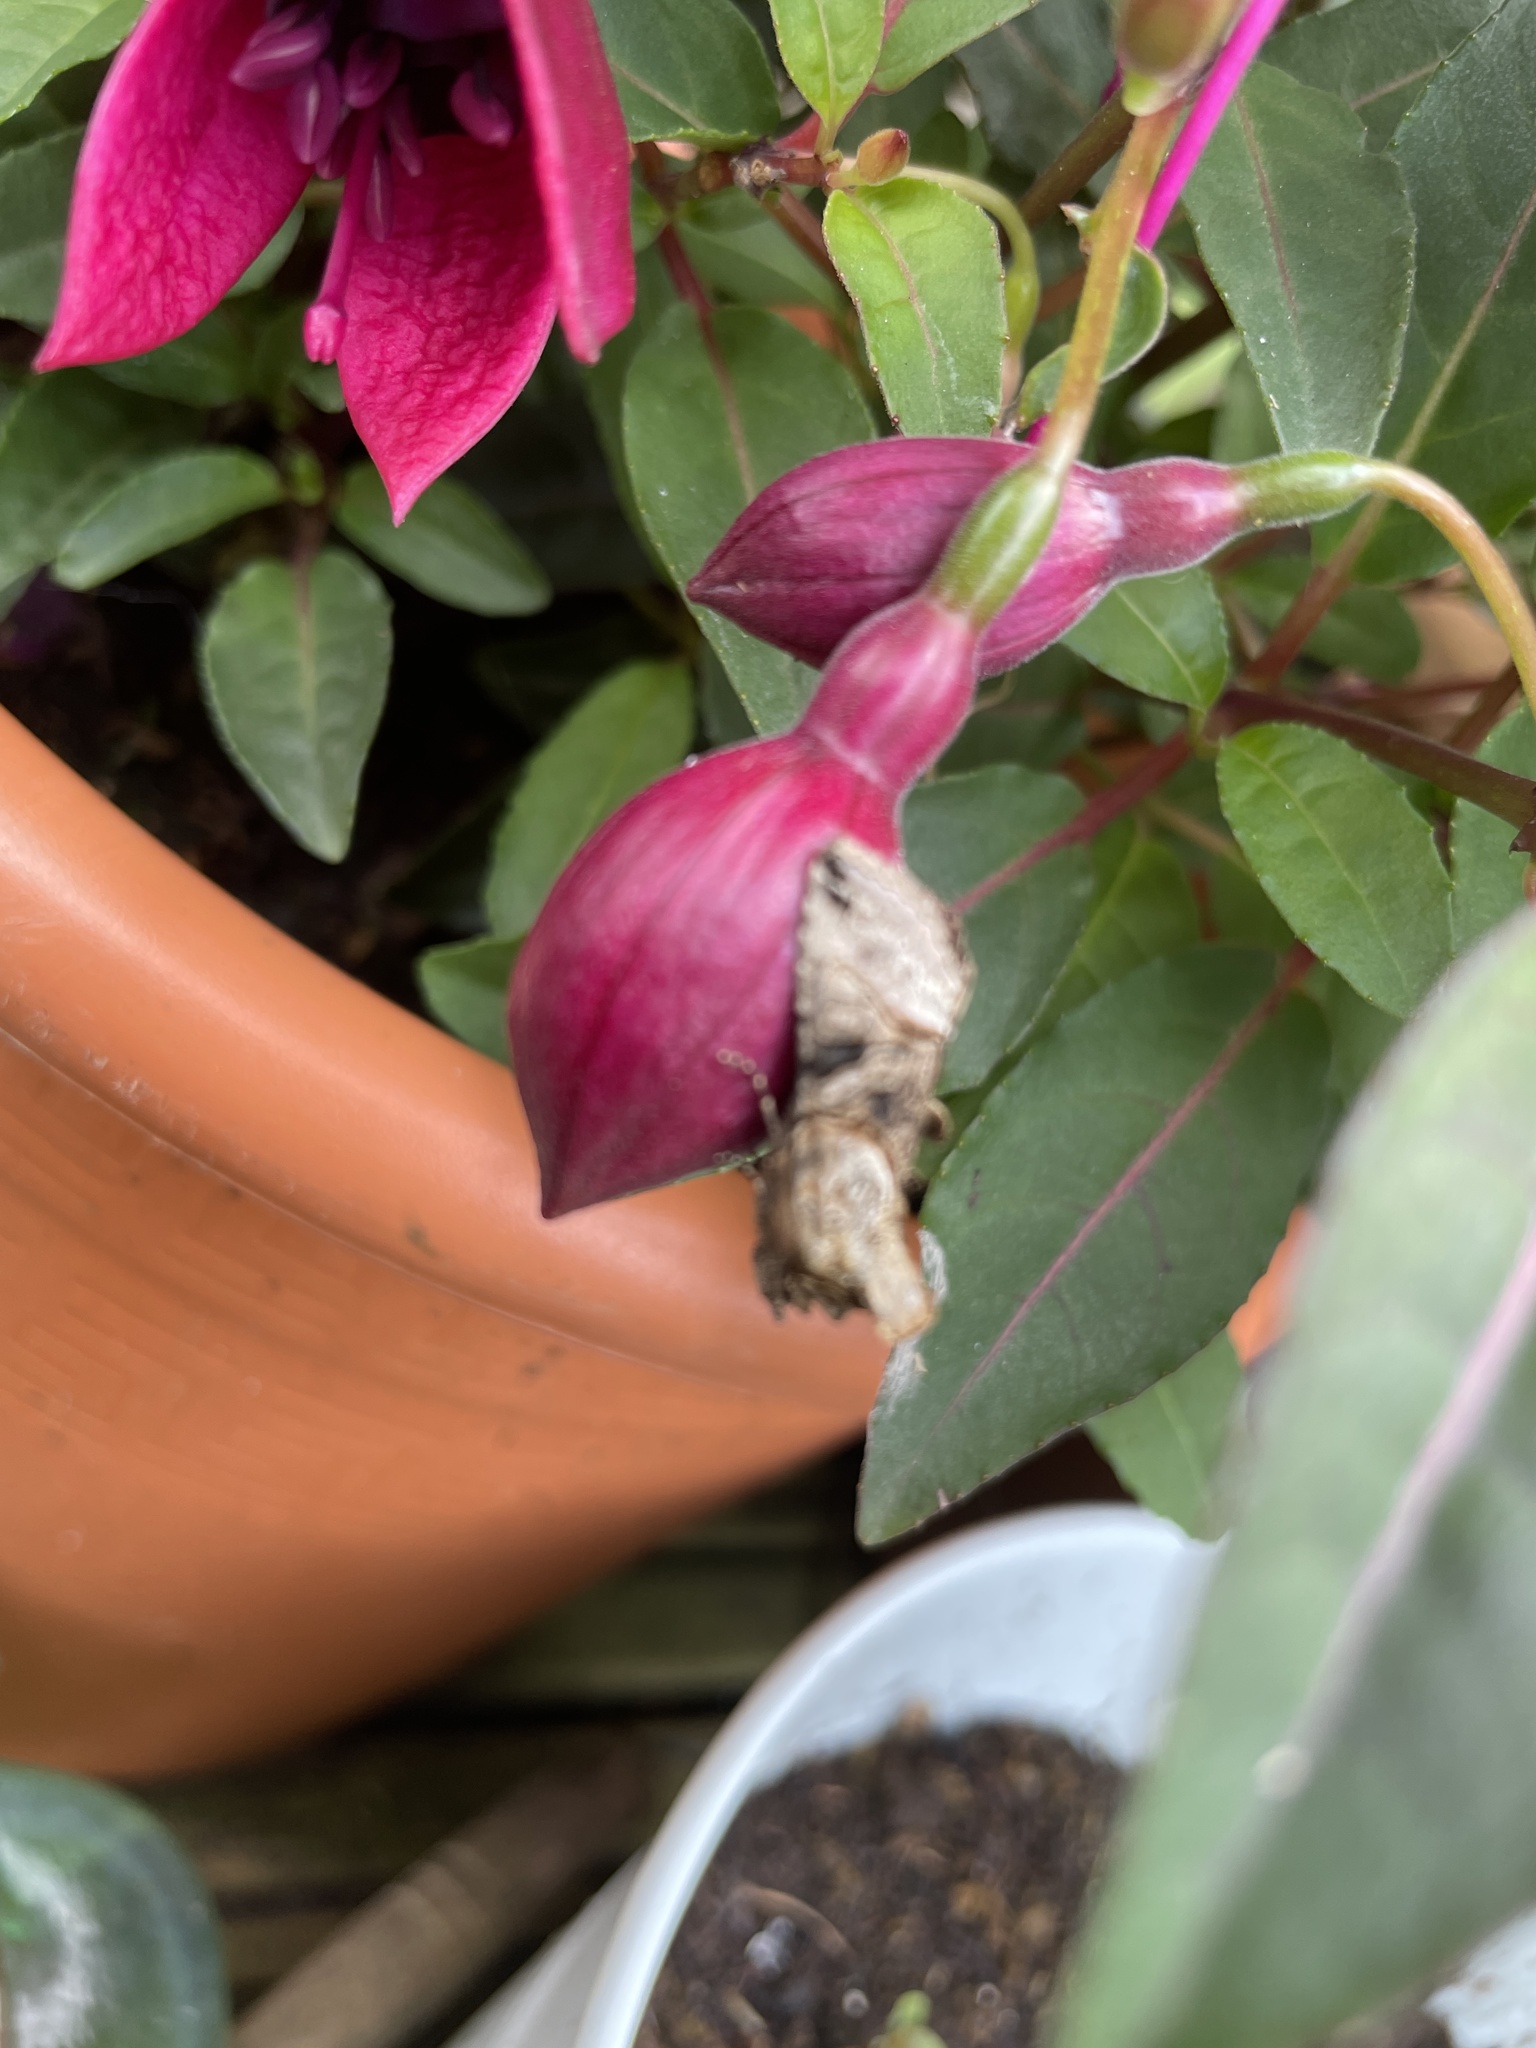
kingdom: Animalia
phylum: Arthropoda
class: Insecta
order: Lepidoptera
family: Noctuidae
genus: Abrostola
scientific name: Abrostola tripartita
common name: Spectacle
